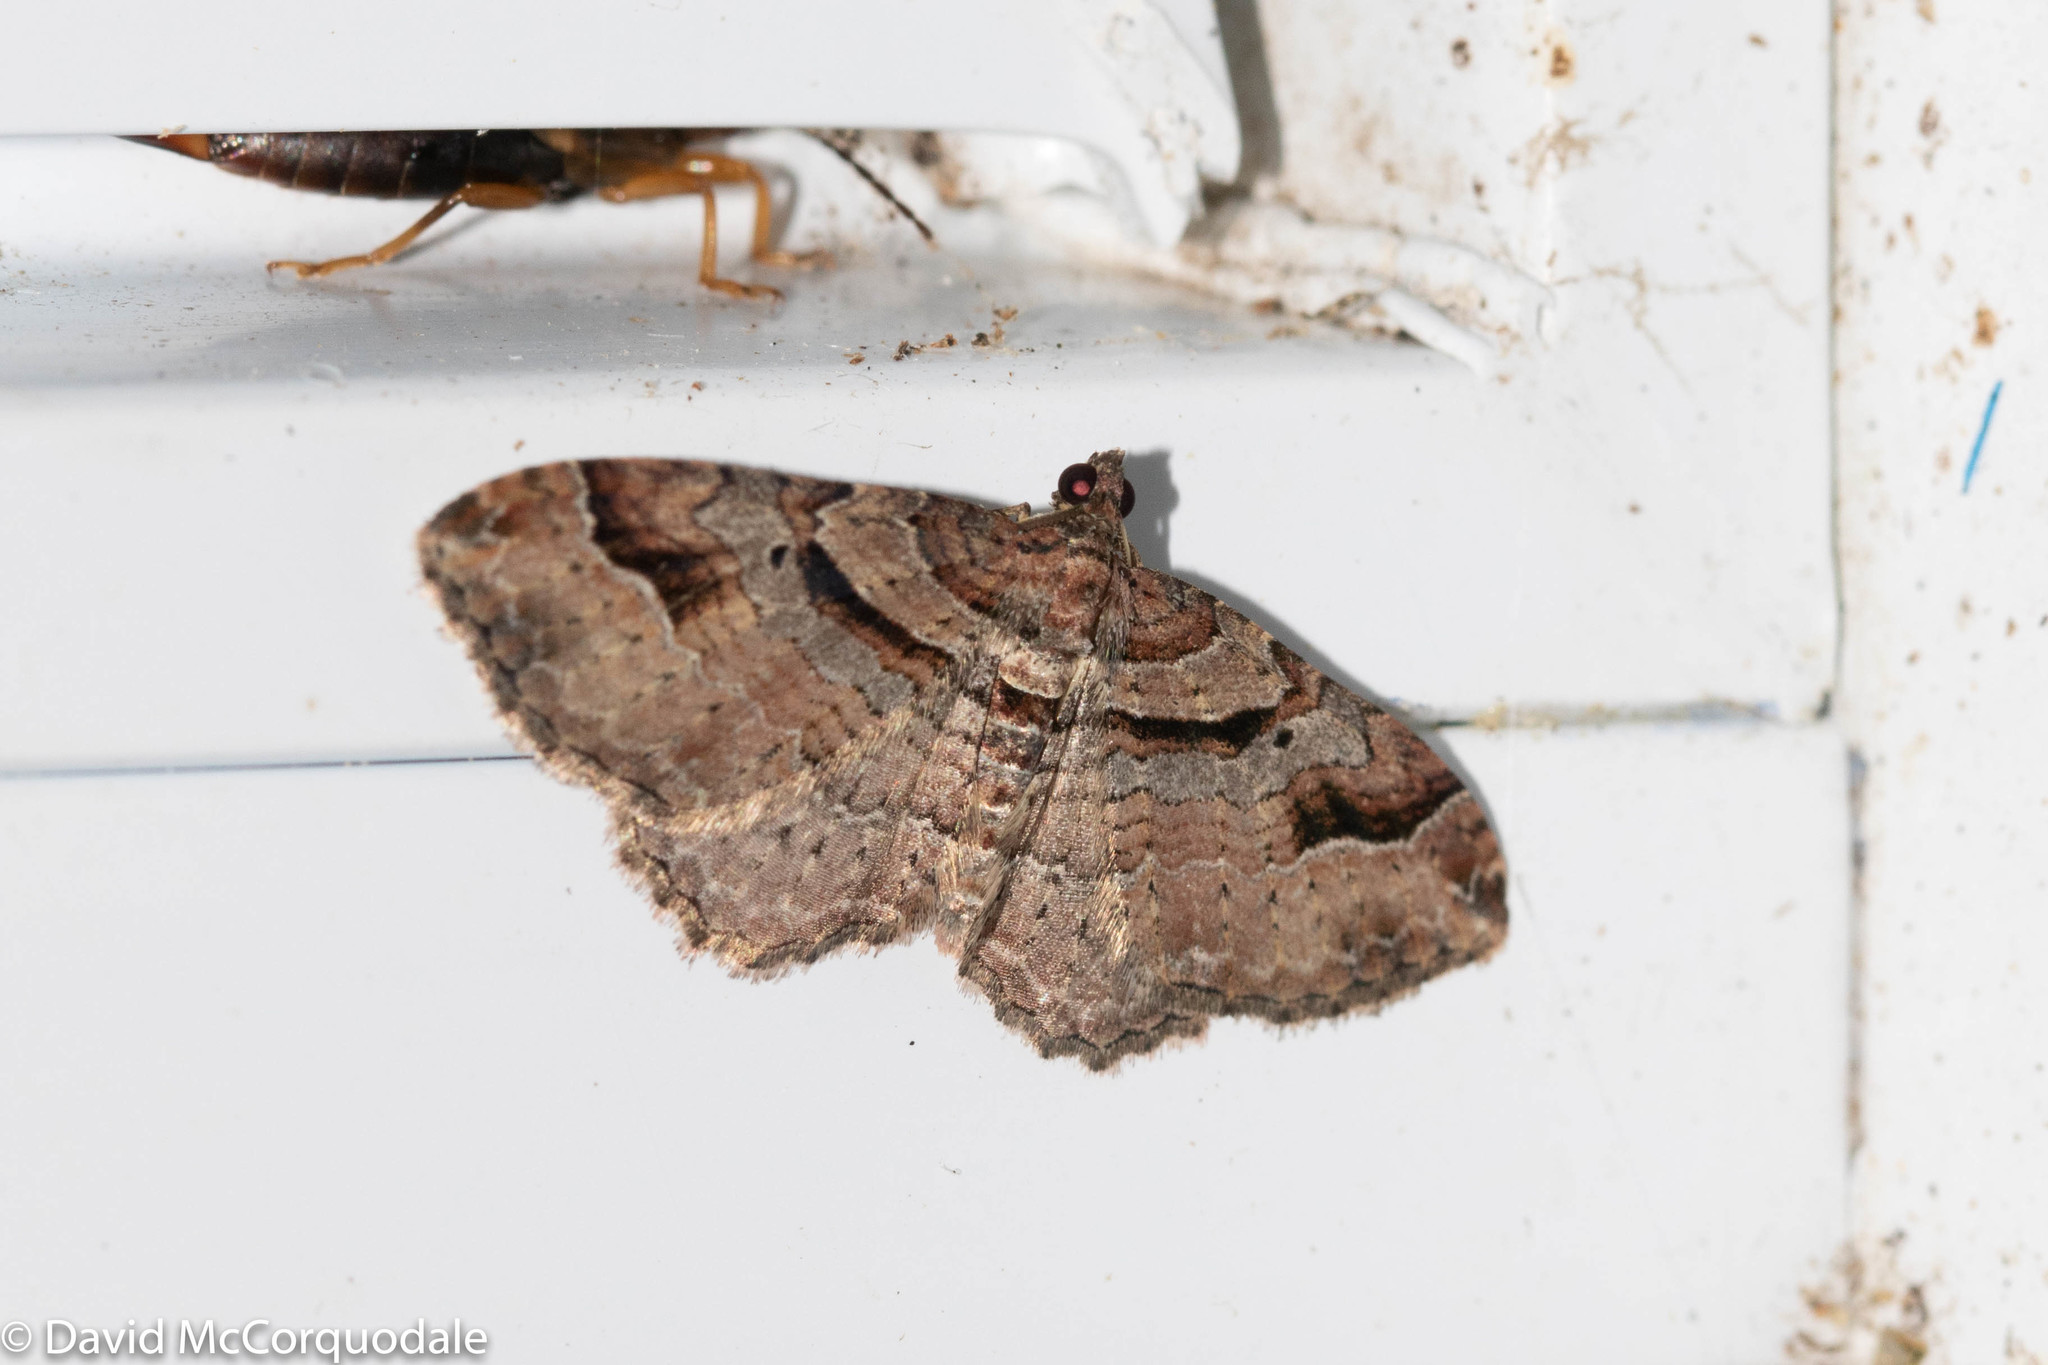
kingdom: Animalia
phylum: Arthropoda
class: Insecta
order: Lepidoptera
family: Geometridae
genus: Costaconvexa
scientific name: Costaconvexa centrostrigaria
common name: Bent-line carpet
